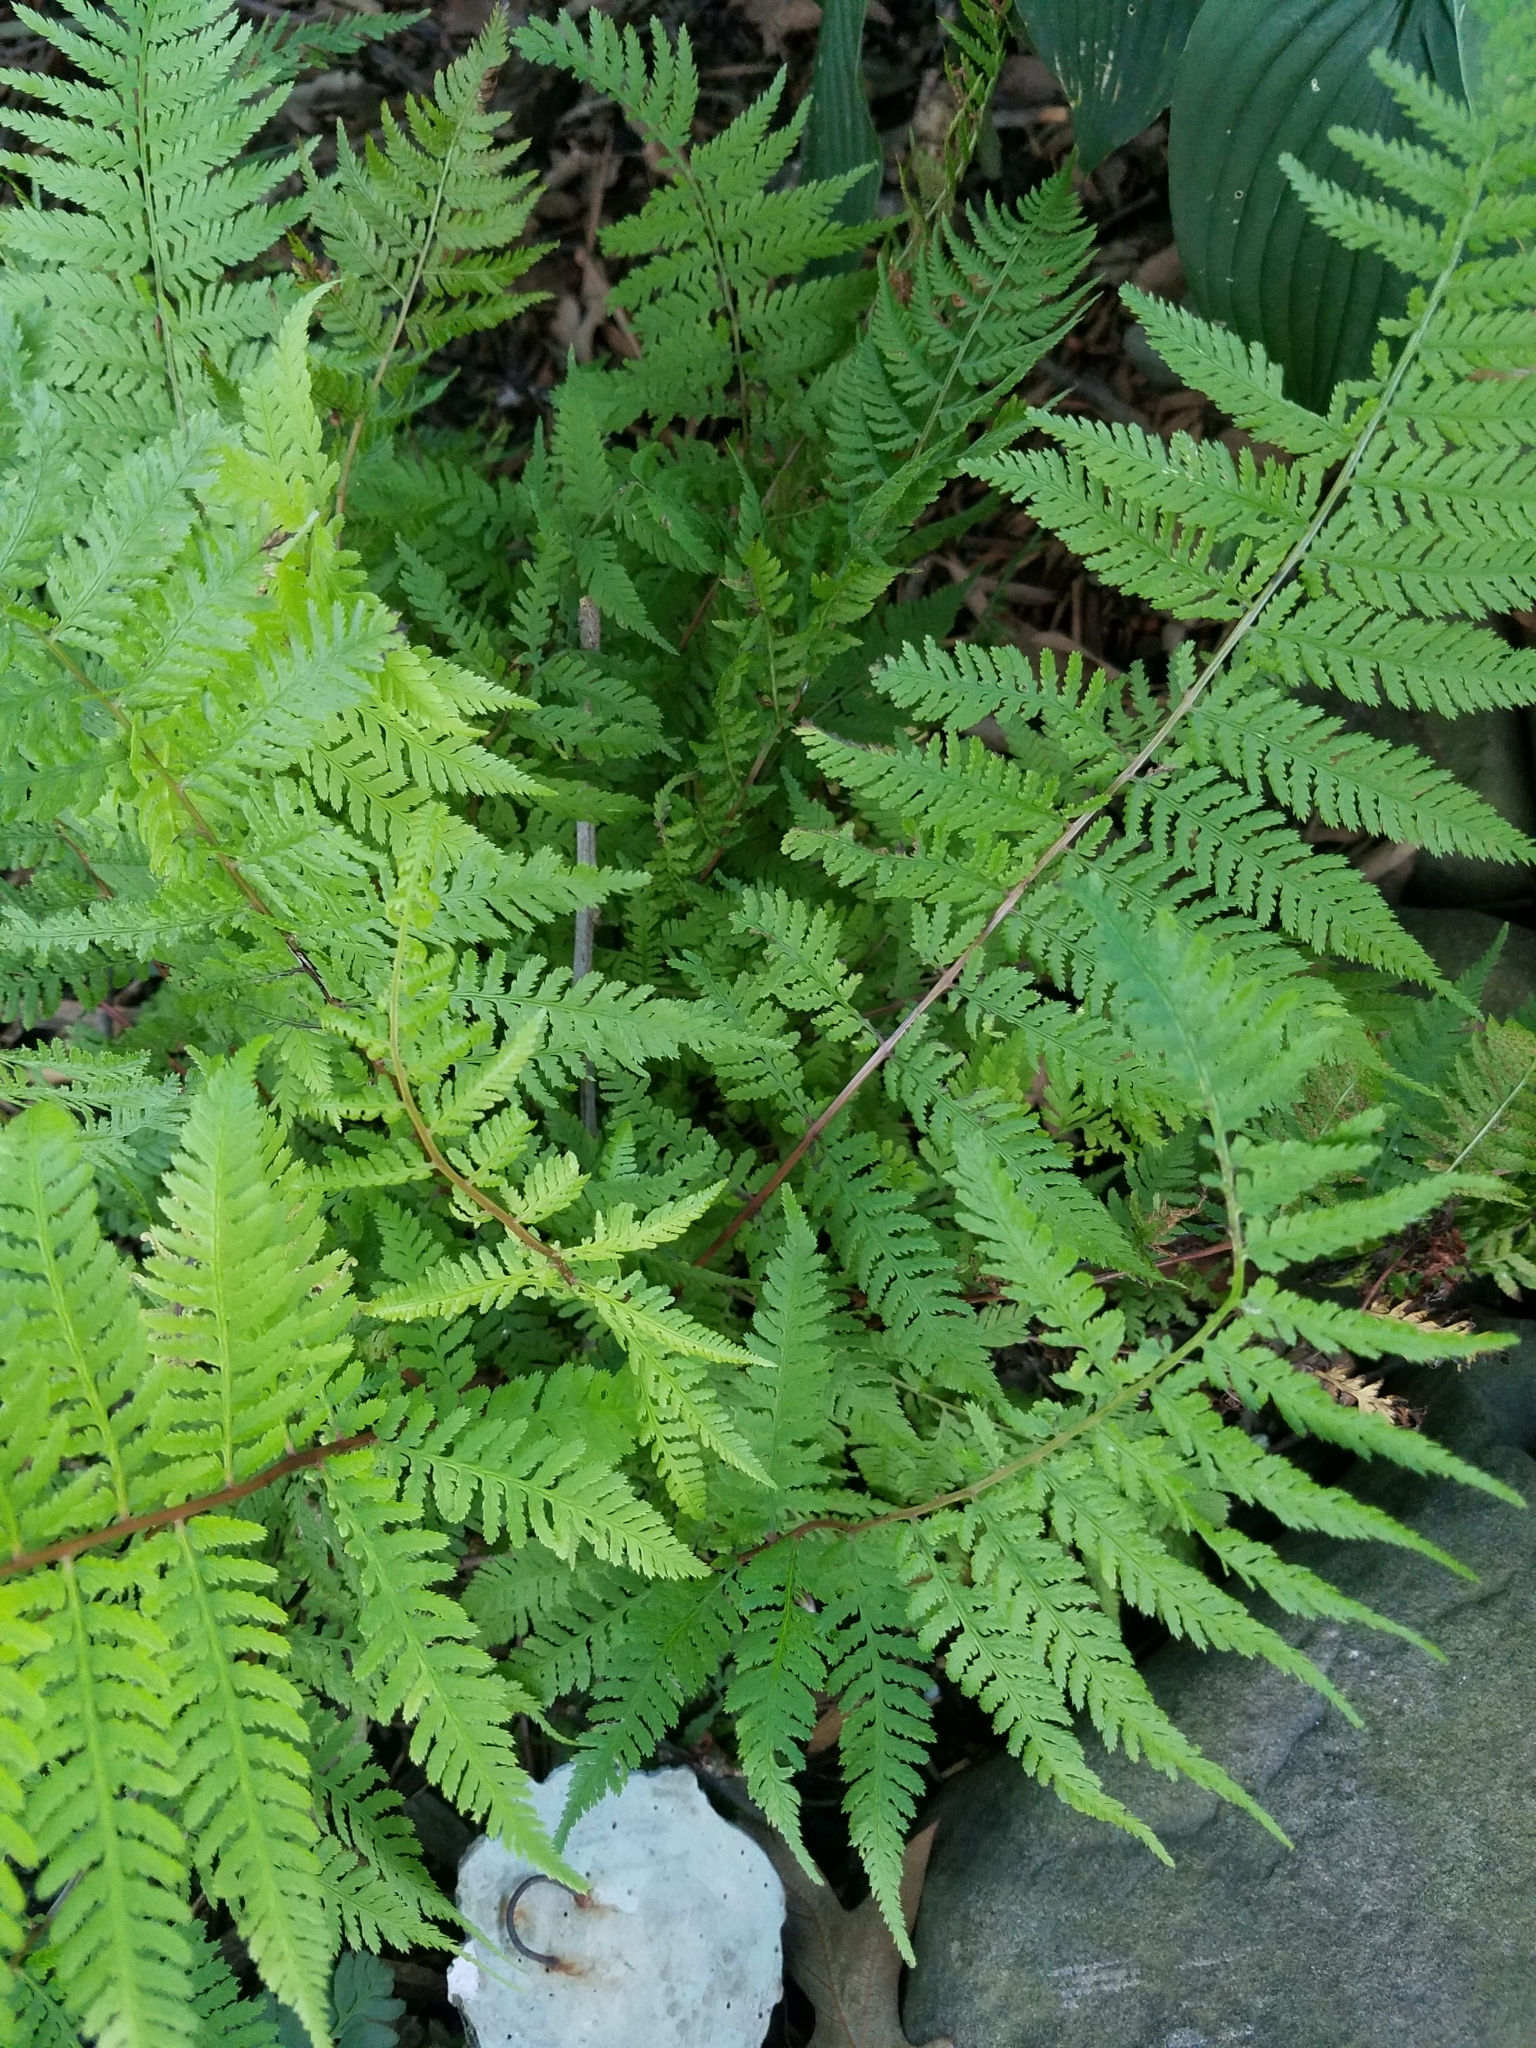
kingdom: Plantae
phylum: Tracheophyta
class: Polypodiopsida
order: Polypodiales
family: Athyriaceae
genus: Athyrium
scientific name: Athyrium asplenioides
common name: Southern lady fern
